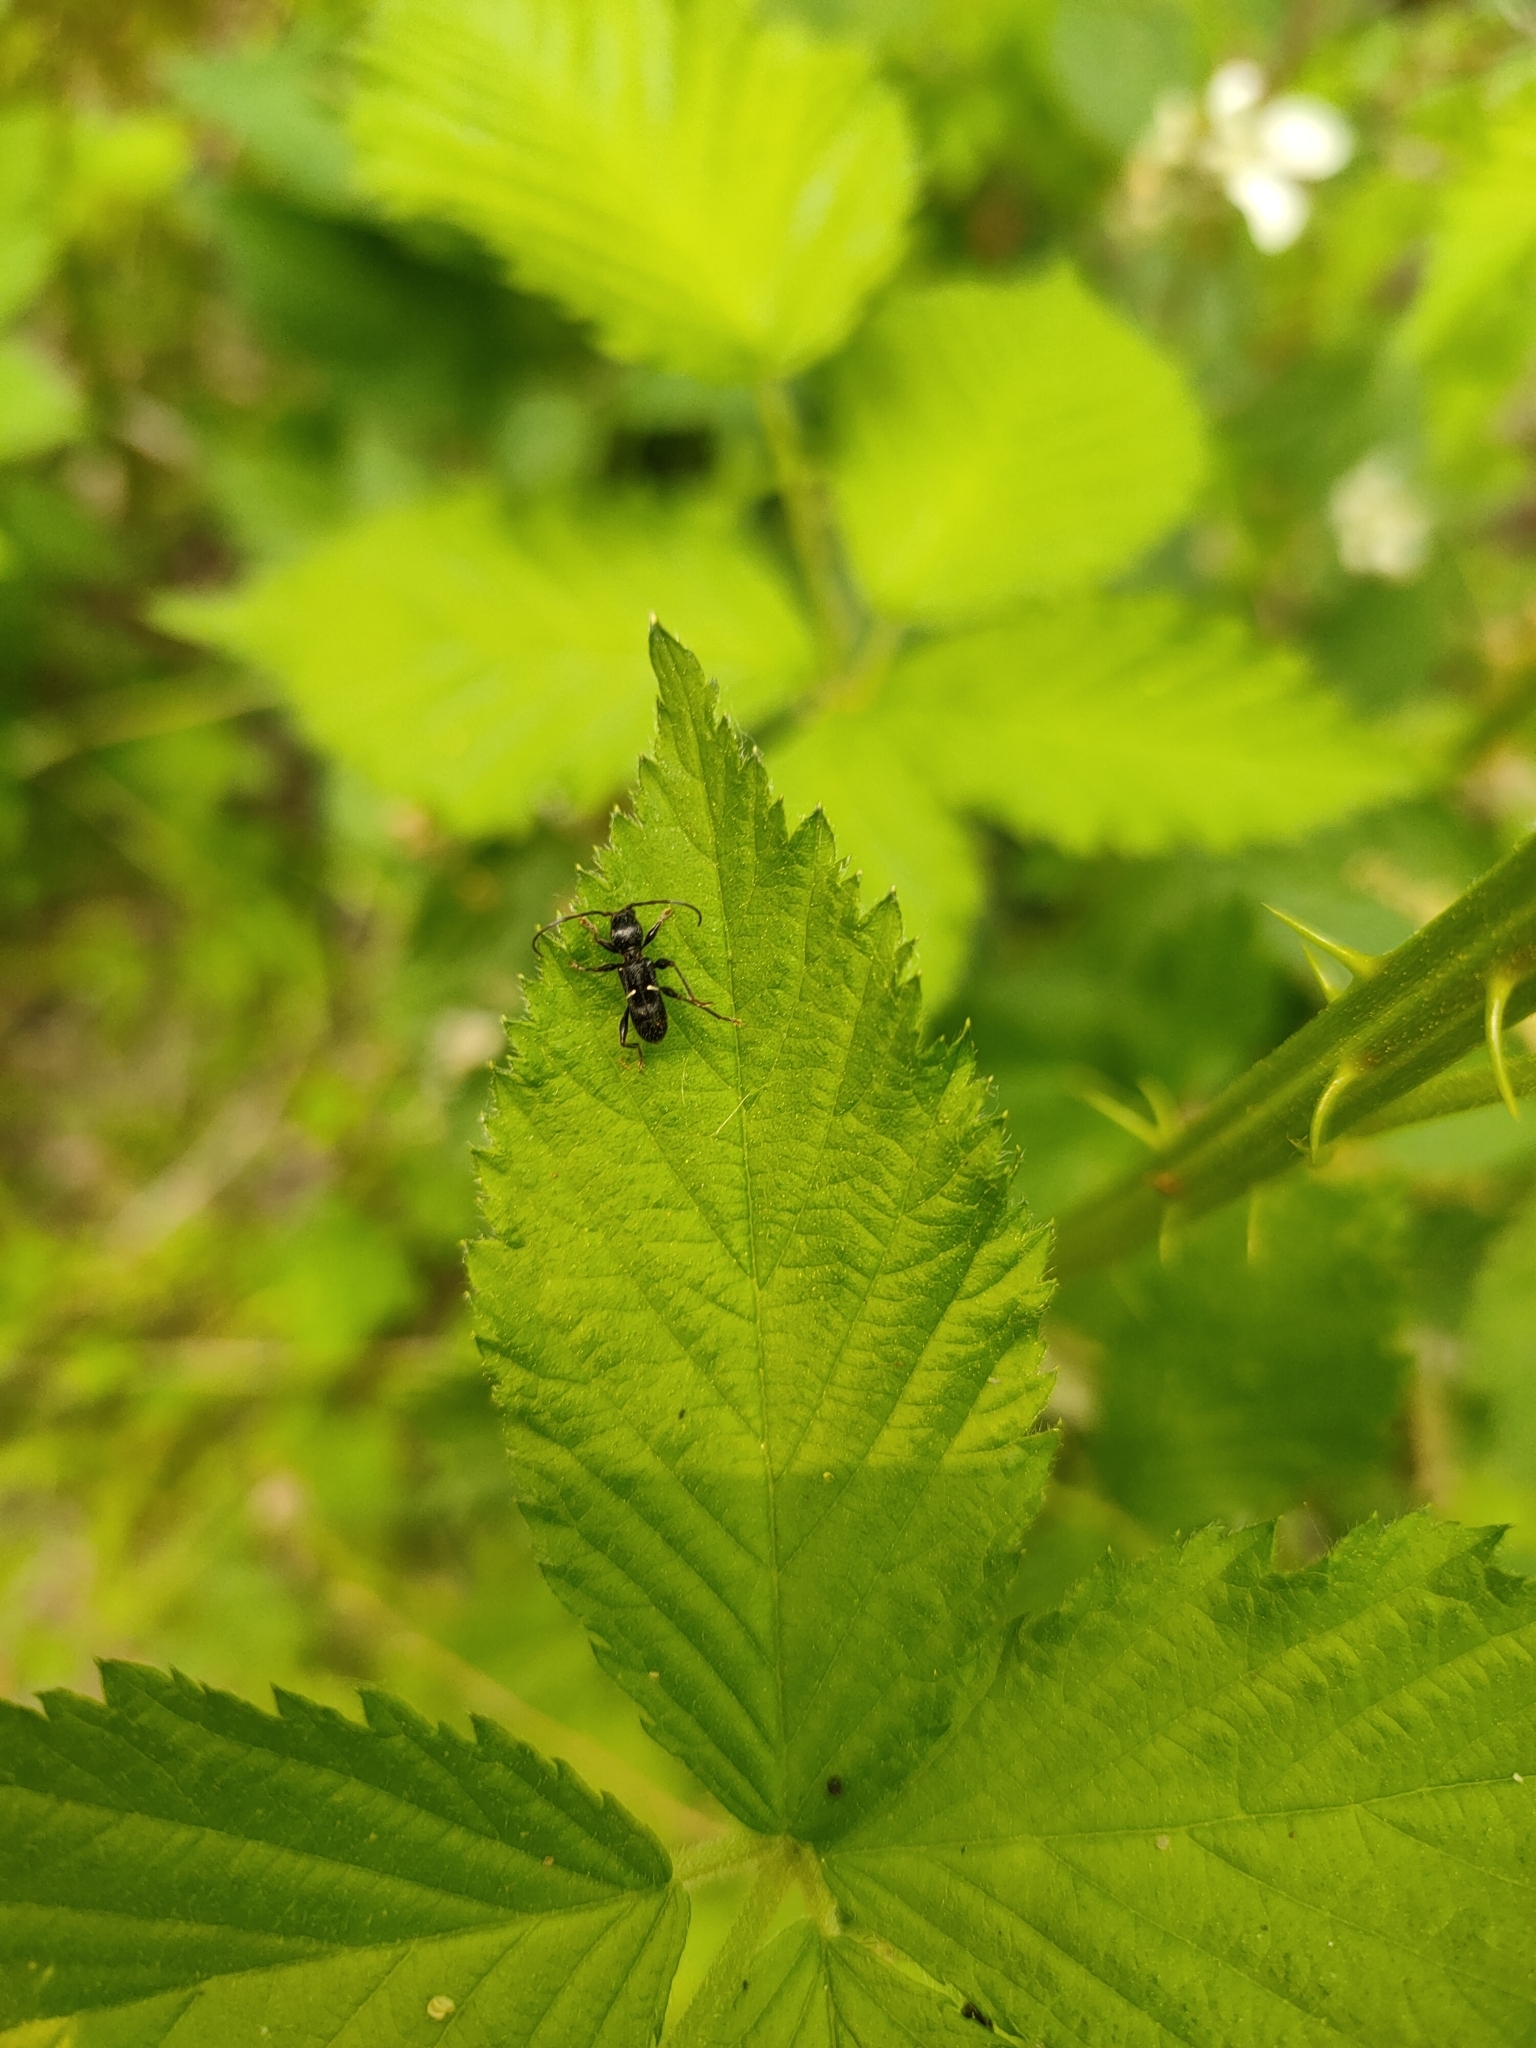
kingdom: Animalia
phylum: Arthropoda
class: Insecta
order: Coleoptera
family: Cerambycidae
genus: Euderces
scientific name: Euderces picipes
